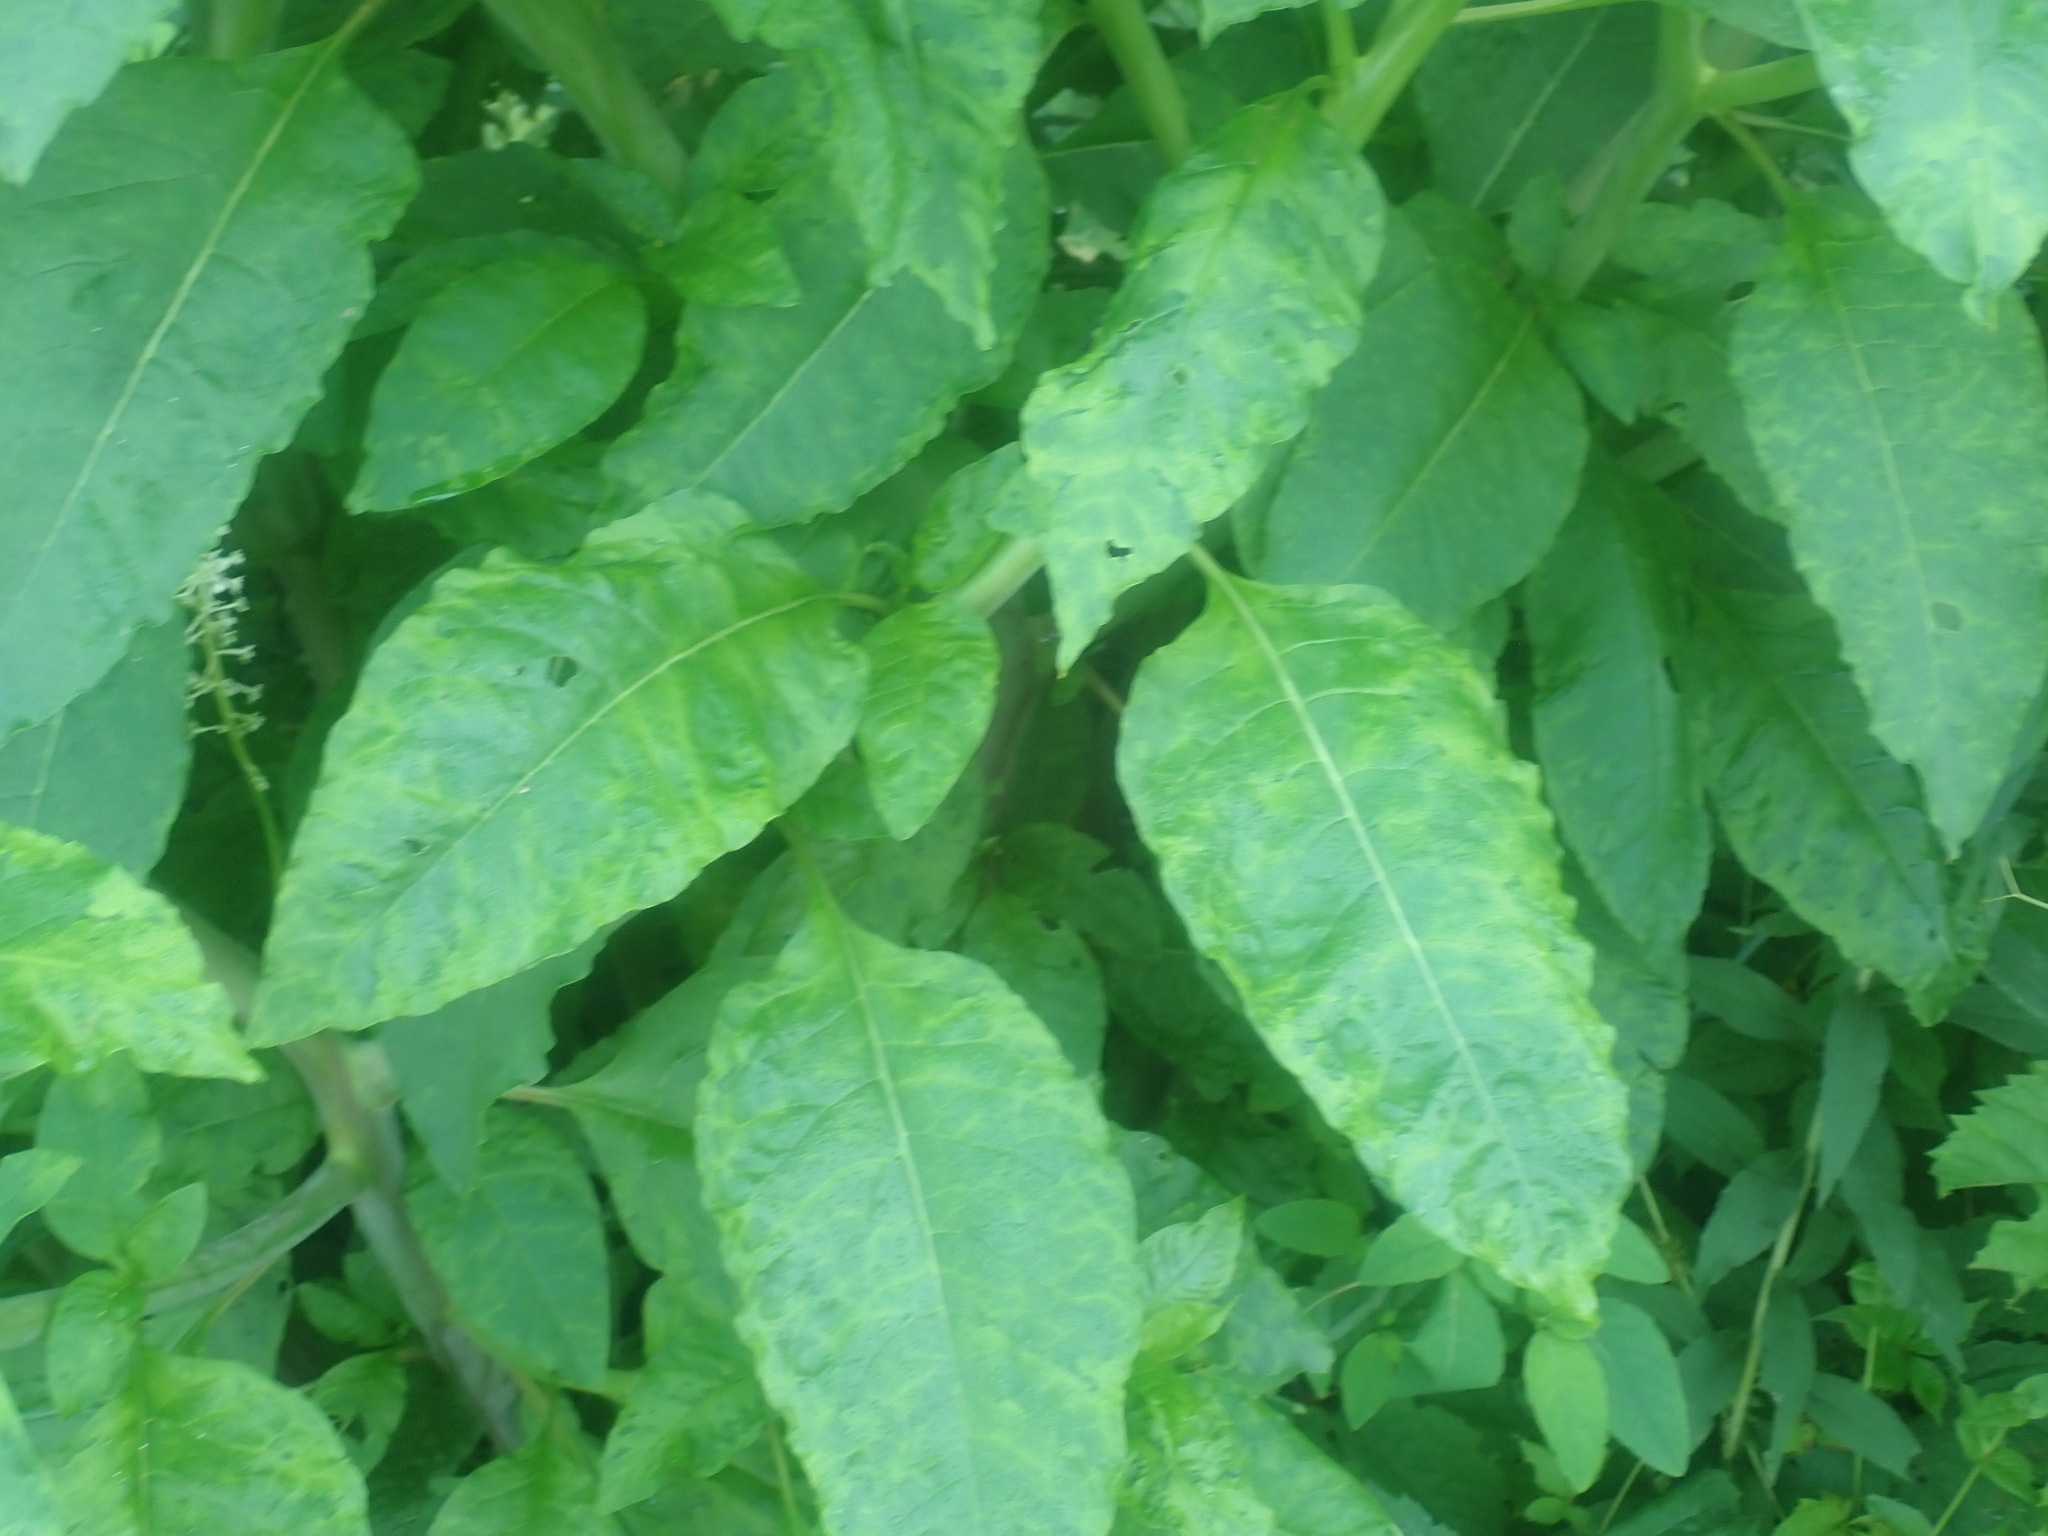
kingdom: Viruses
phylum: Pisuviricota
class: Stelpaviricetes
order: Patatavirales
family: Potyviridae
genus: Potyvirus
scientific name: Potyvirus Pokeweed mosaic virus
